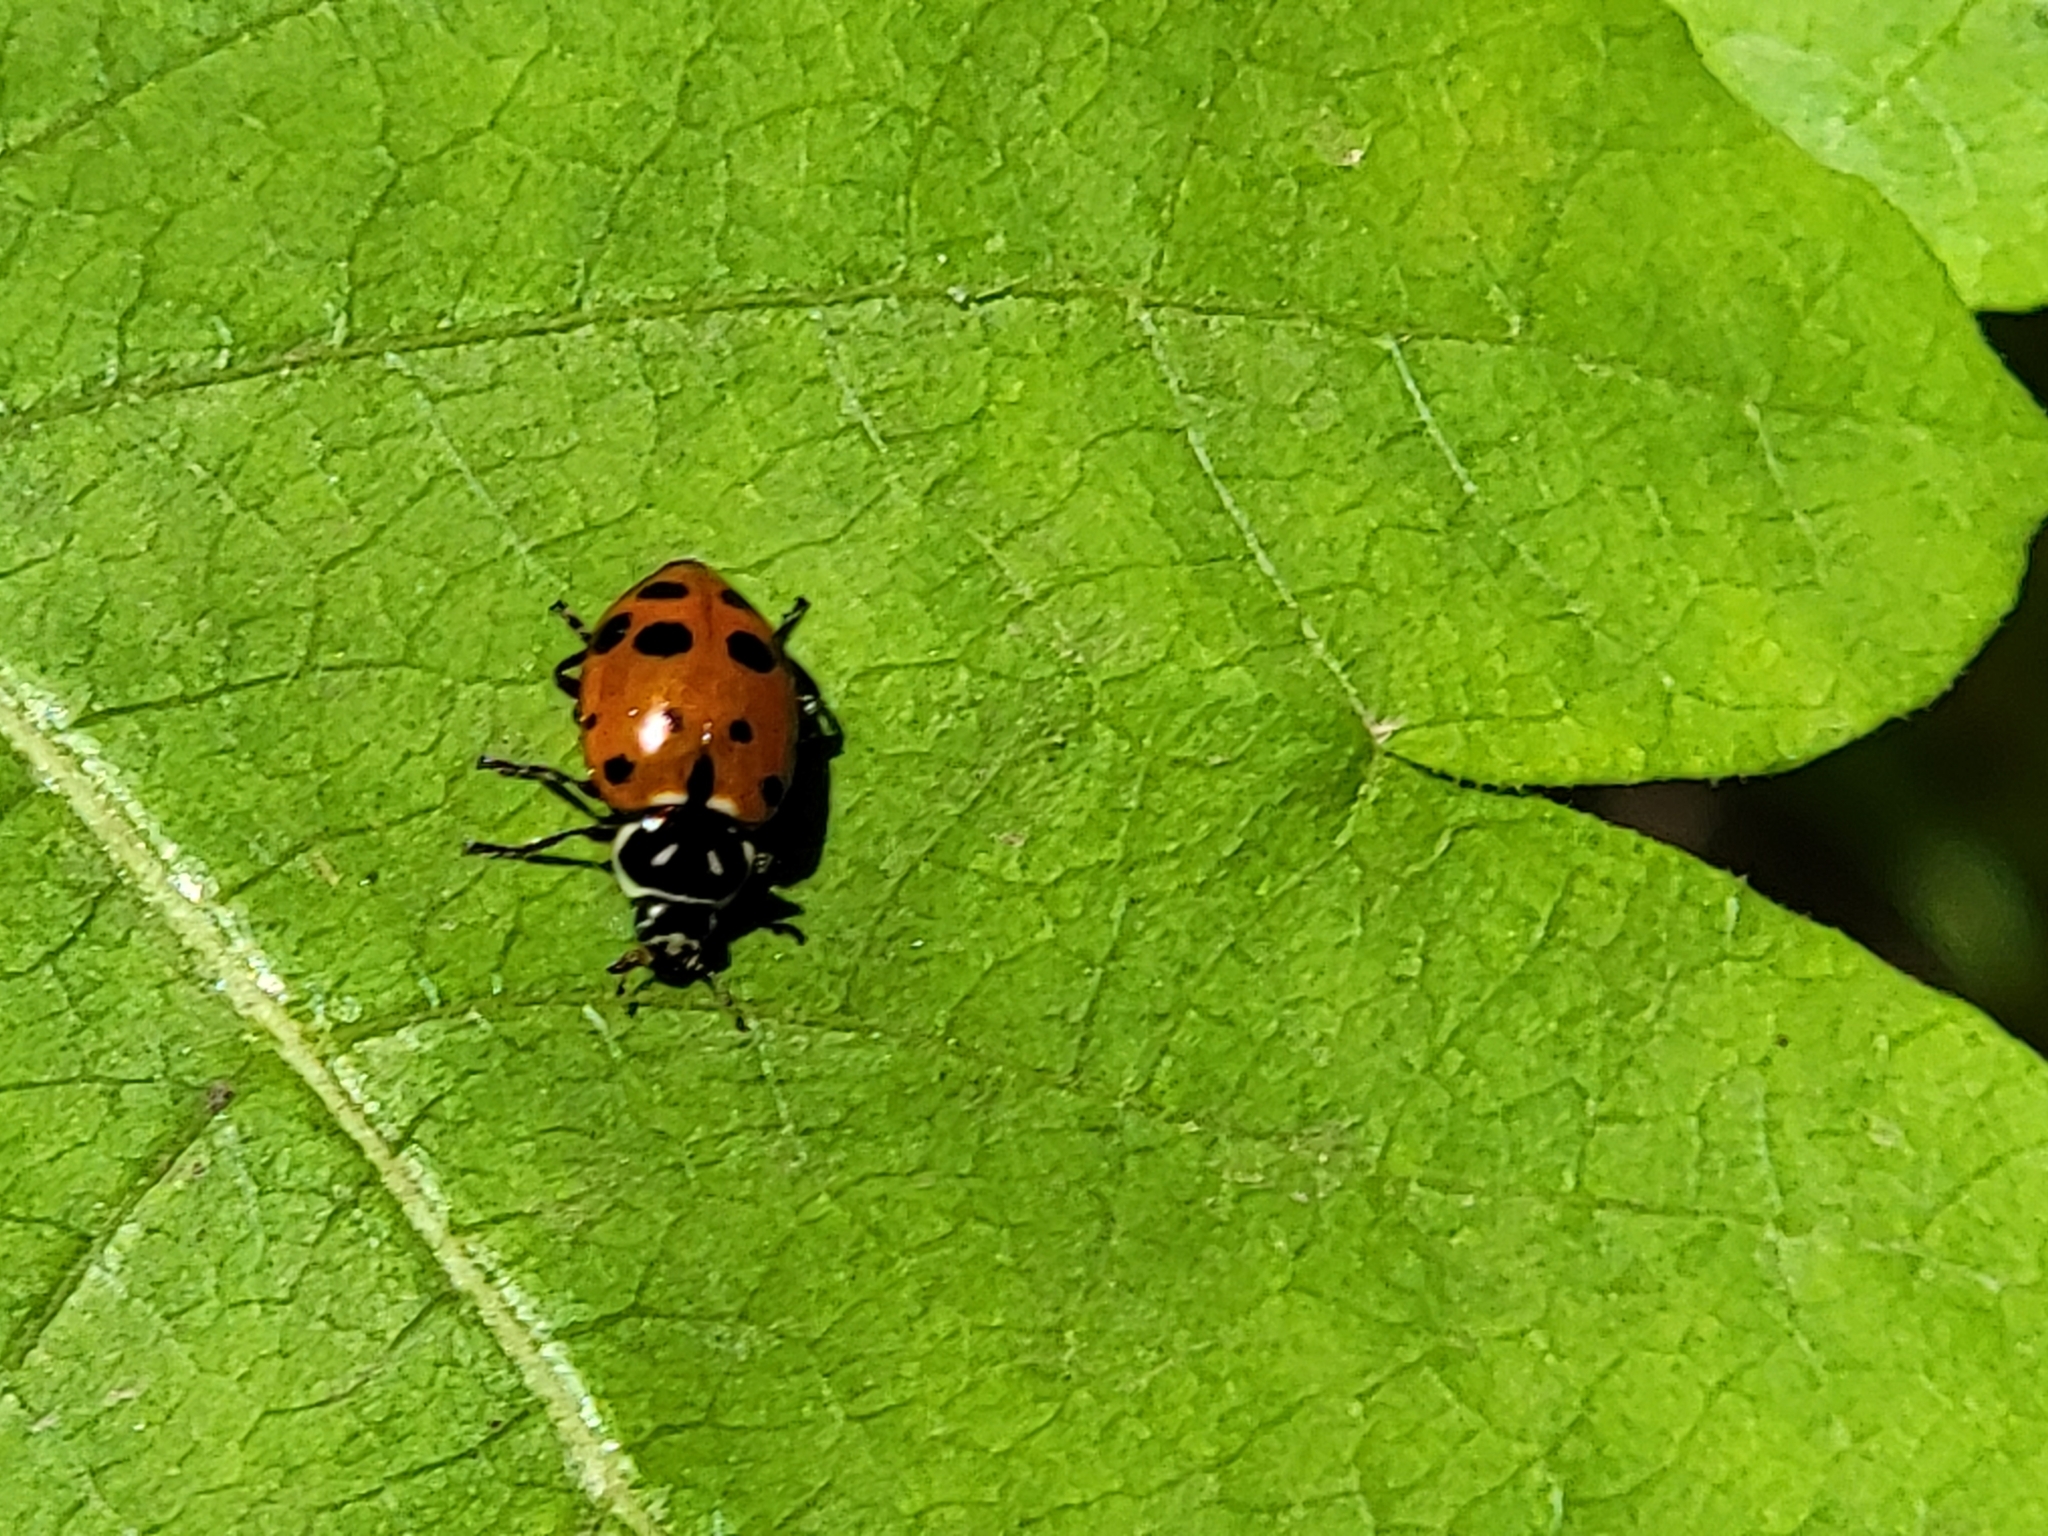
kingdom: Animalia
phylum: Arthropoda
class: Insecta
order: Coleoptera
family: Coccinellidae
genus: Hippodamia
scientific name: Hippodamia convergens
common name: Convergent lady beetle
